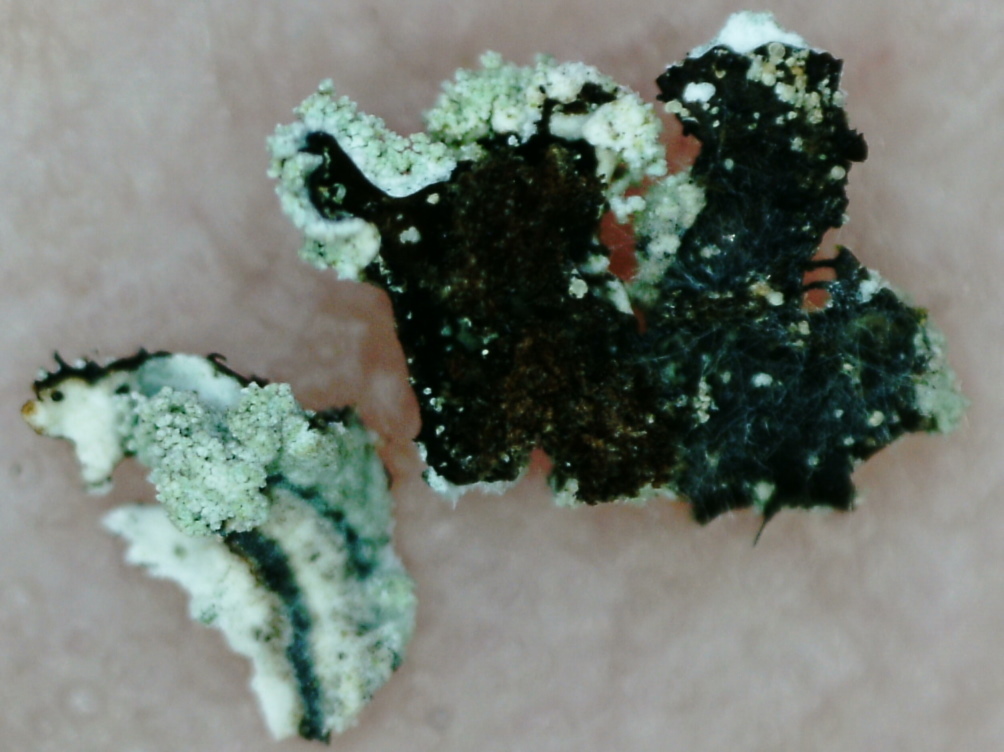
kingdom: Fungi
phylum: Ascomycota
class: Lecanoromycetes
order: Lecanorales
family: Parmeliaceae
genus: Parmeliopsis
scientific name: Parmeliopsis hyperopta
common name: Grey starburst lichen
